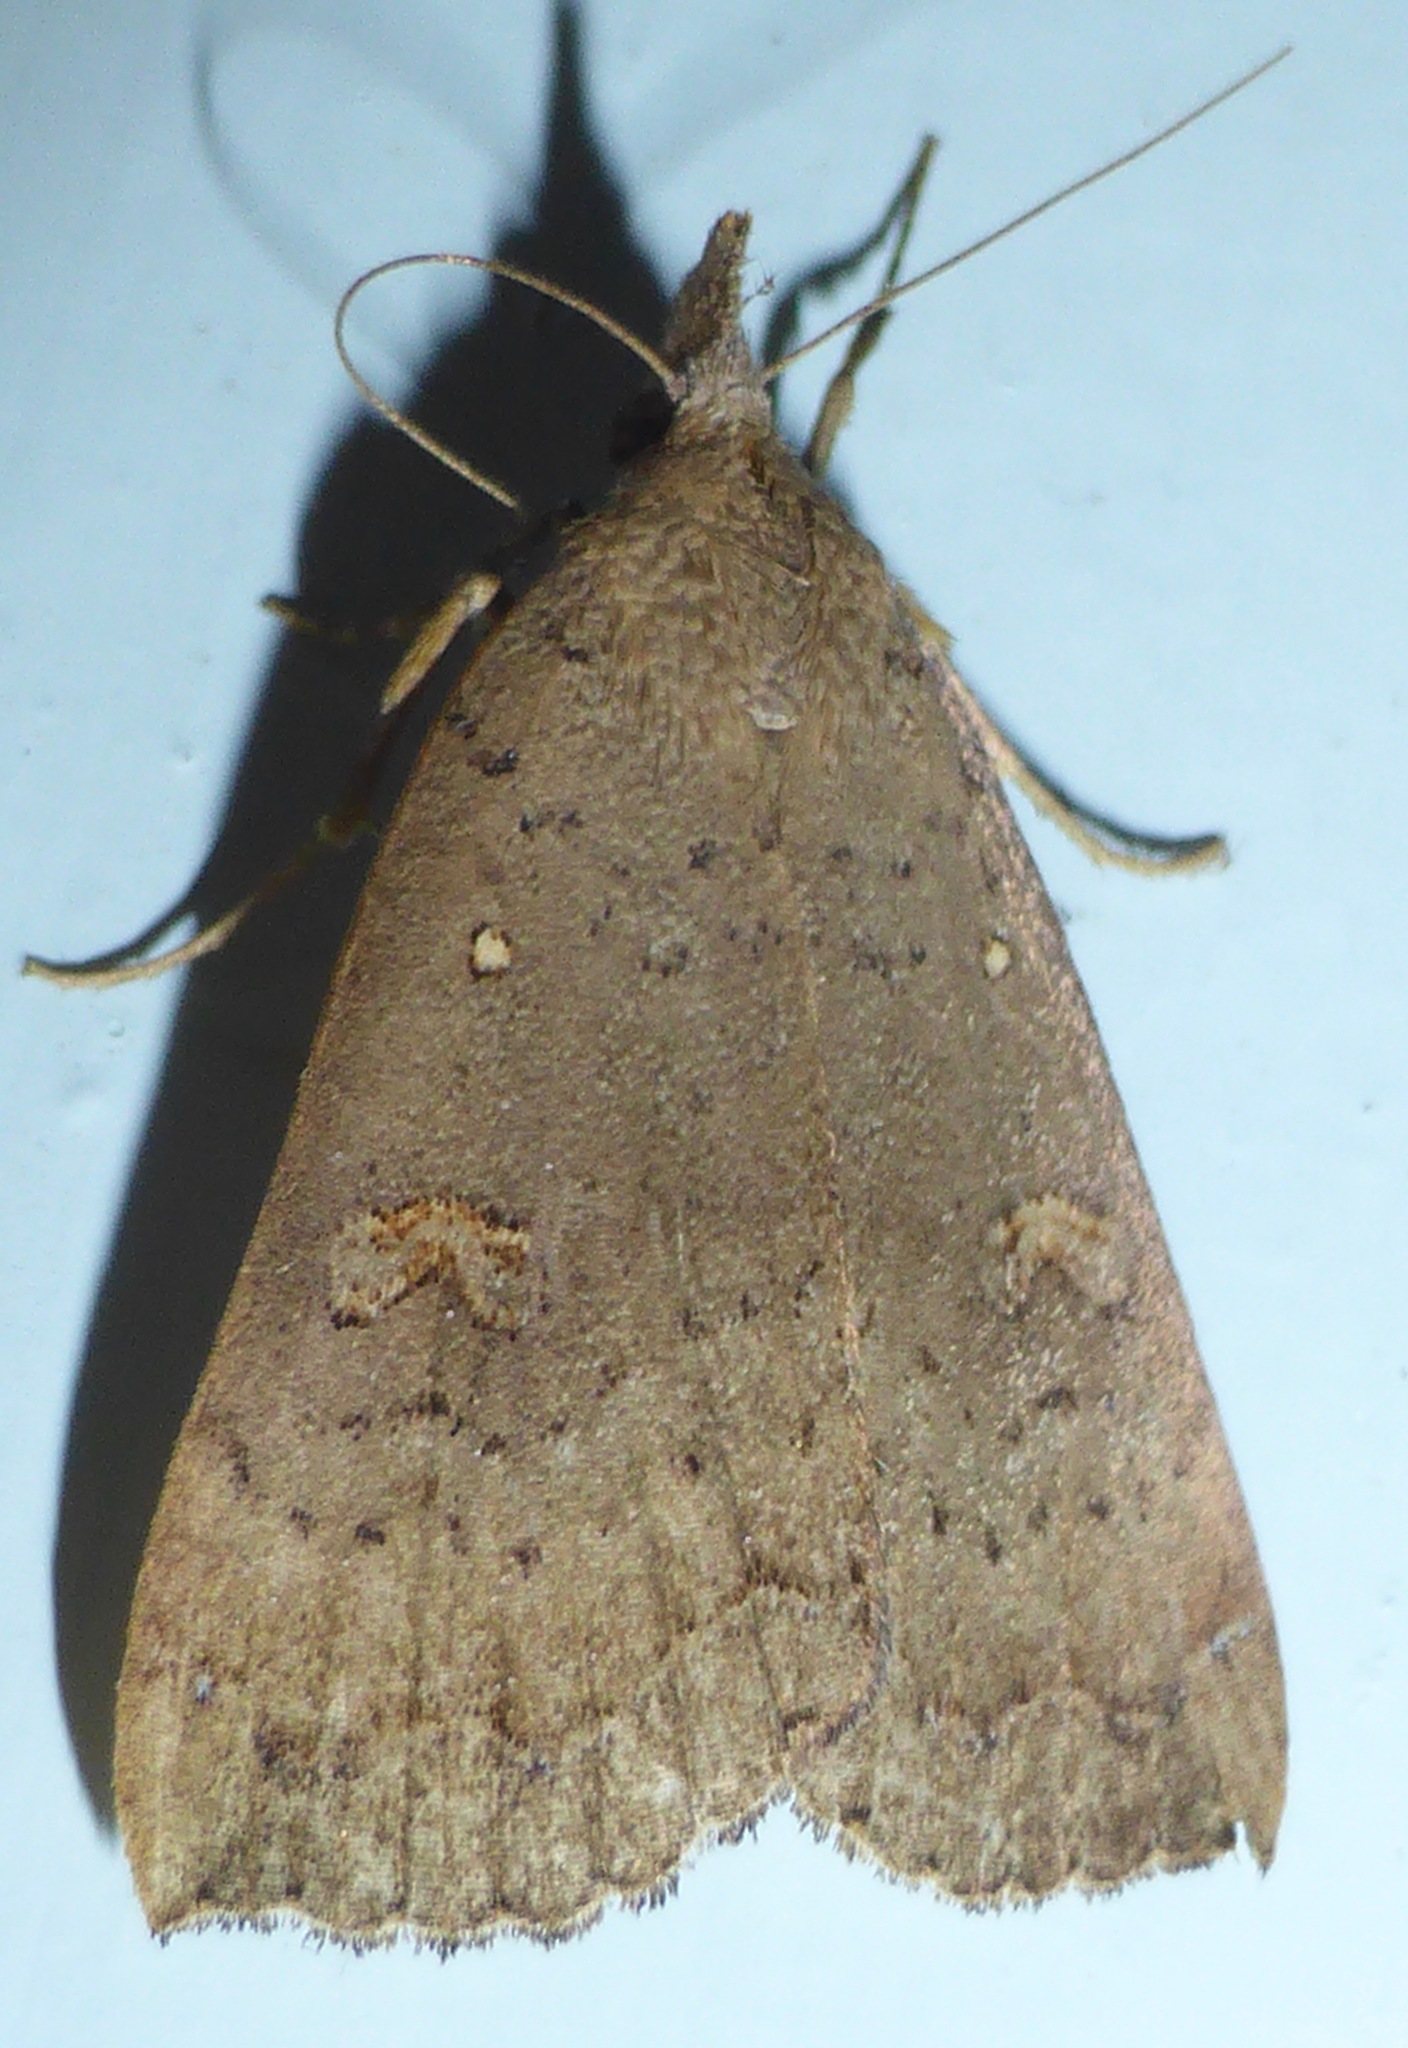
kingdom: Animalia
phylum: Arthropoda
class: Insecta
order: Lepidoptera
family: Erebidae
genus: Rhapsa
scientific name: Rhapsa scotosialis
